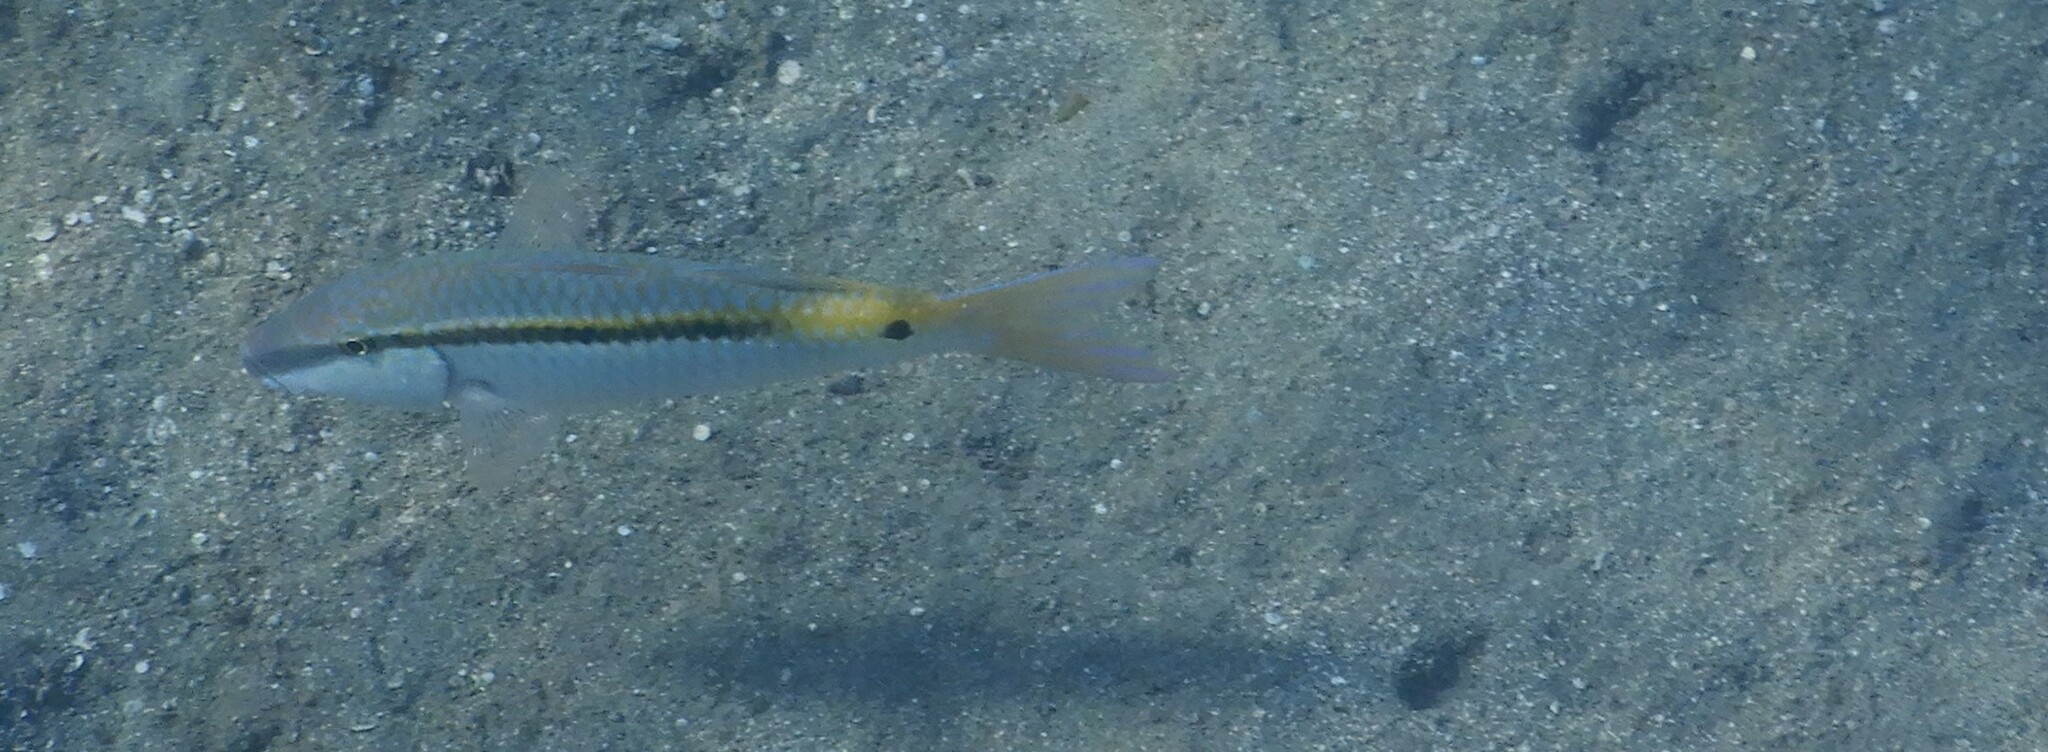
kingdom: Animalia
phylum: Chordata
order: Perciformes
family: Mullidae
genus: Parupeneus
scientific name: Parupeneus forsskali
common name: Red sea goatfish
